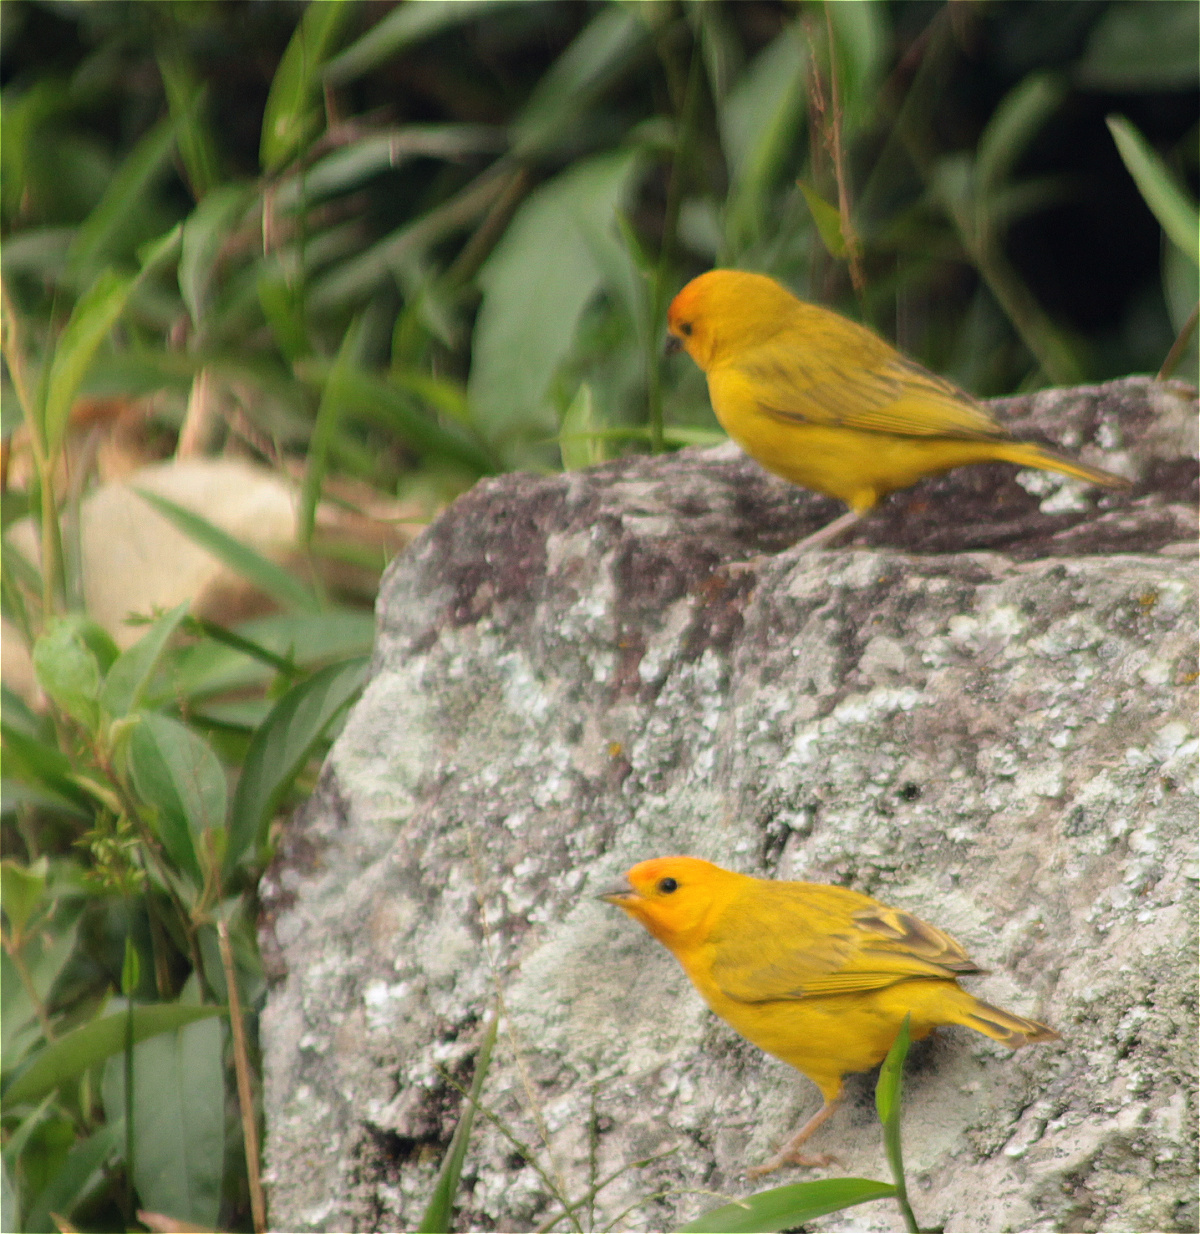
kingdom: Animalia
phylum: Chordata
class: Aves
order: Passeriformes
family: Thraupidae
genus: Sicalis
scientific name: Sicalis flaveola
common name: Saffron finch
